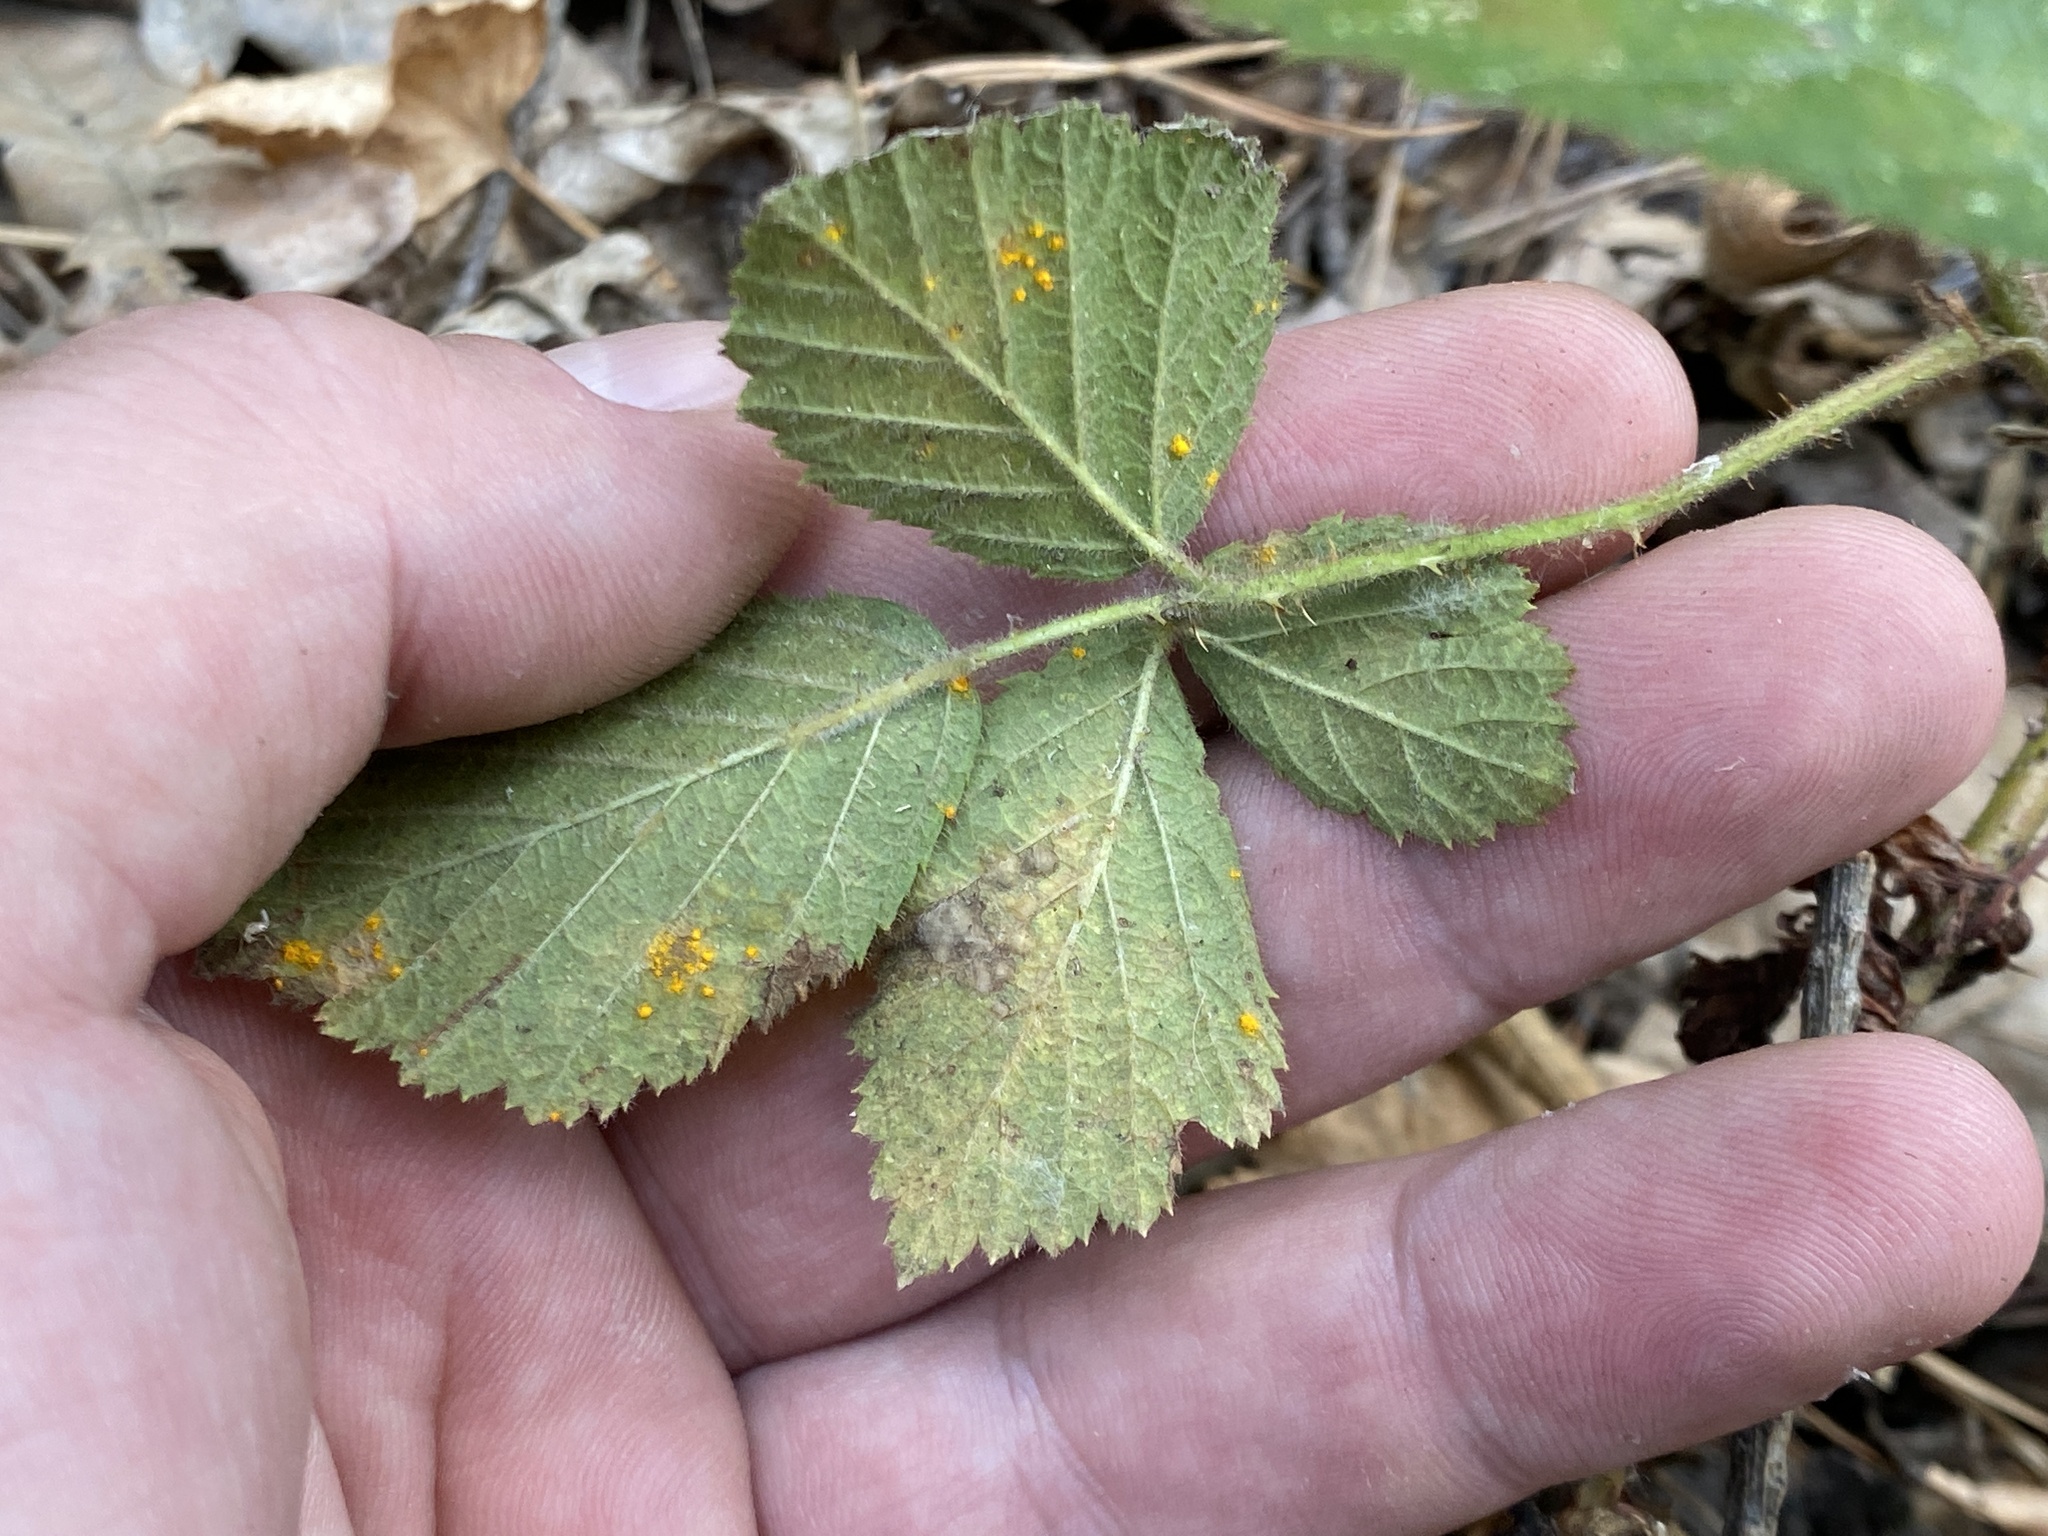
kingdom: Fungi
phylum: Basidiomycota
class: Pucciniomycetes
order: Pucciniales
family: Phragmidiaceae
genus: Kuehneola
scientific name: Kuehneola uredinis
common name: Bramble stem rust
